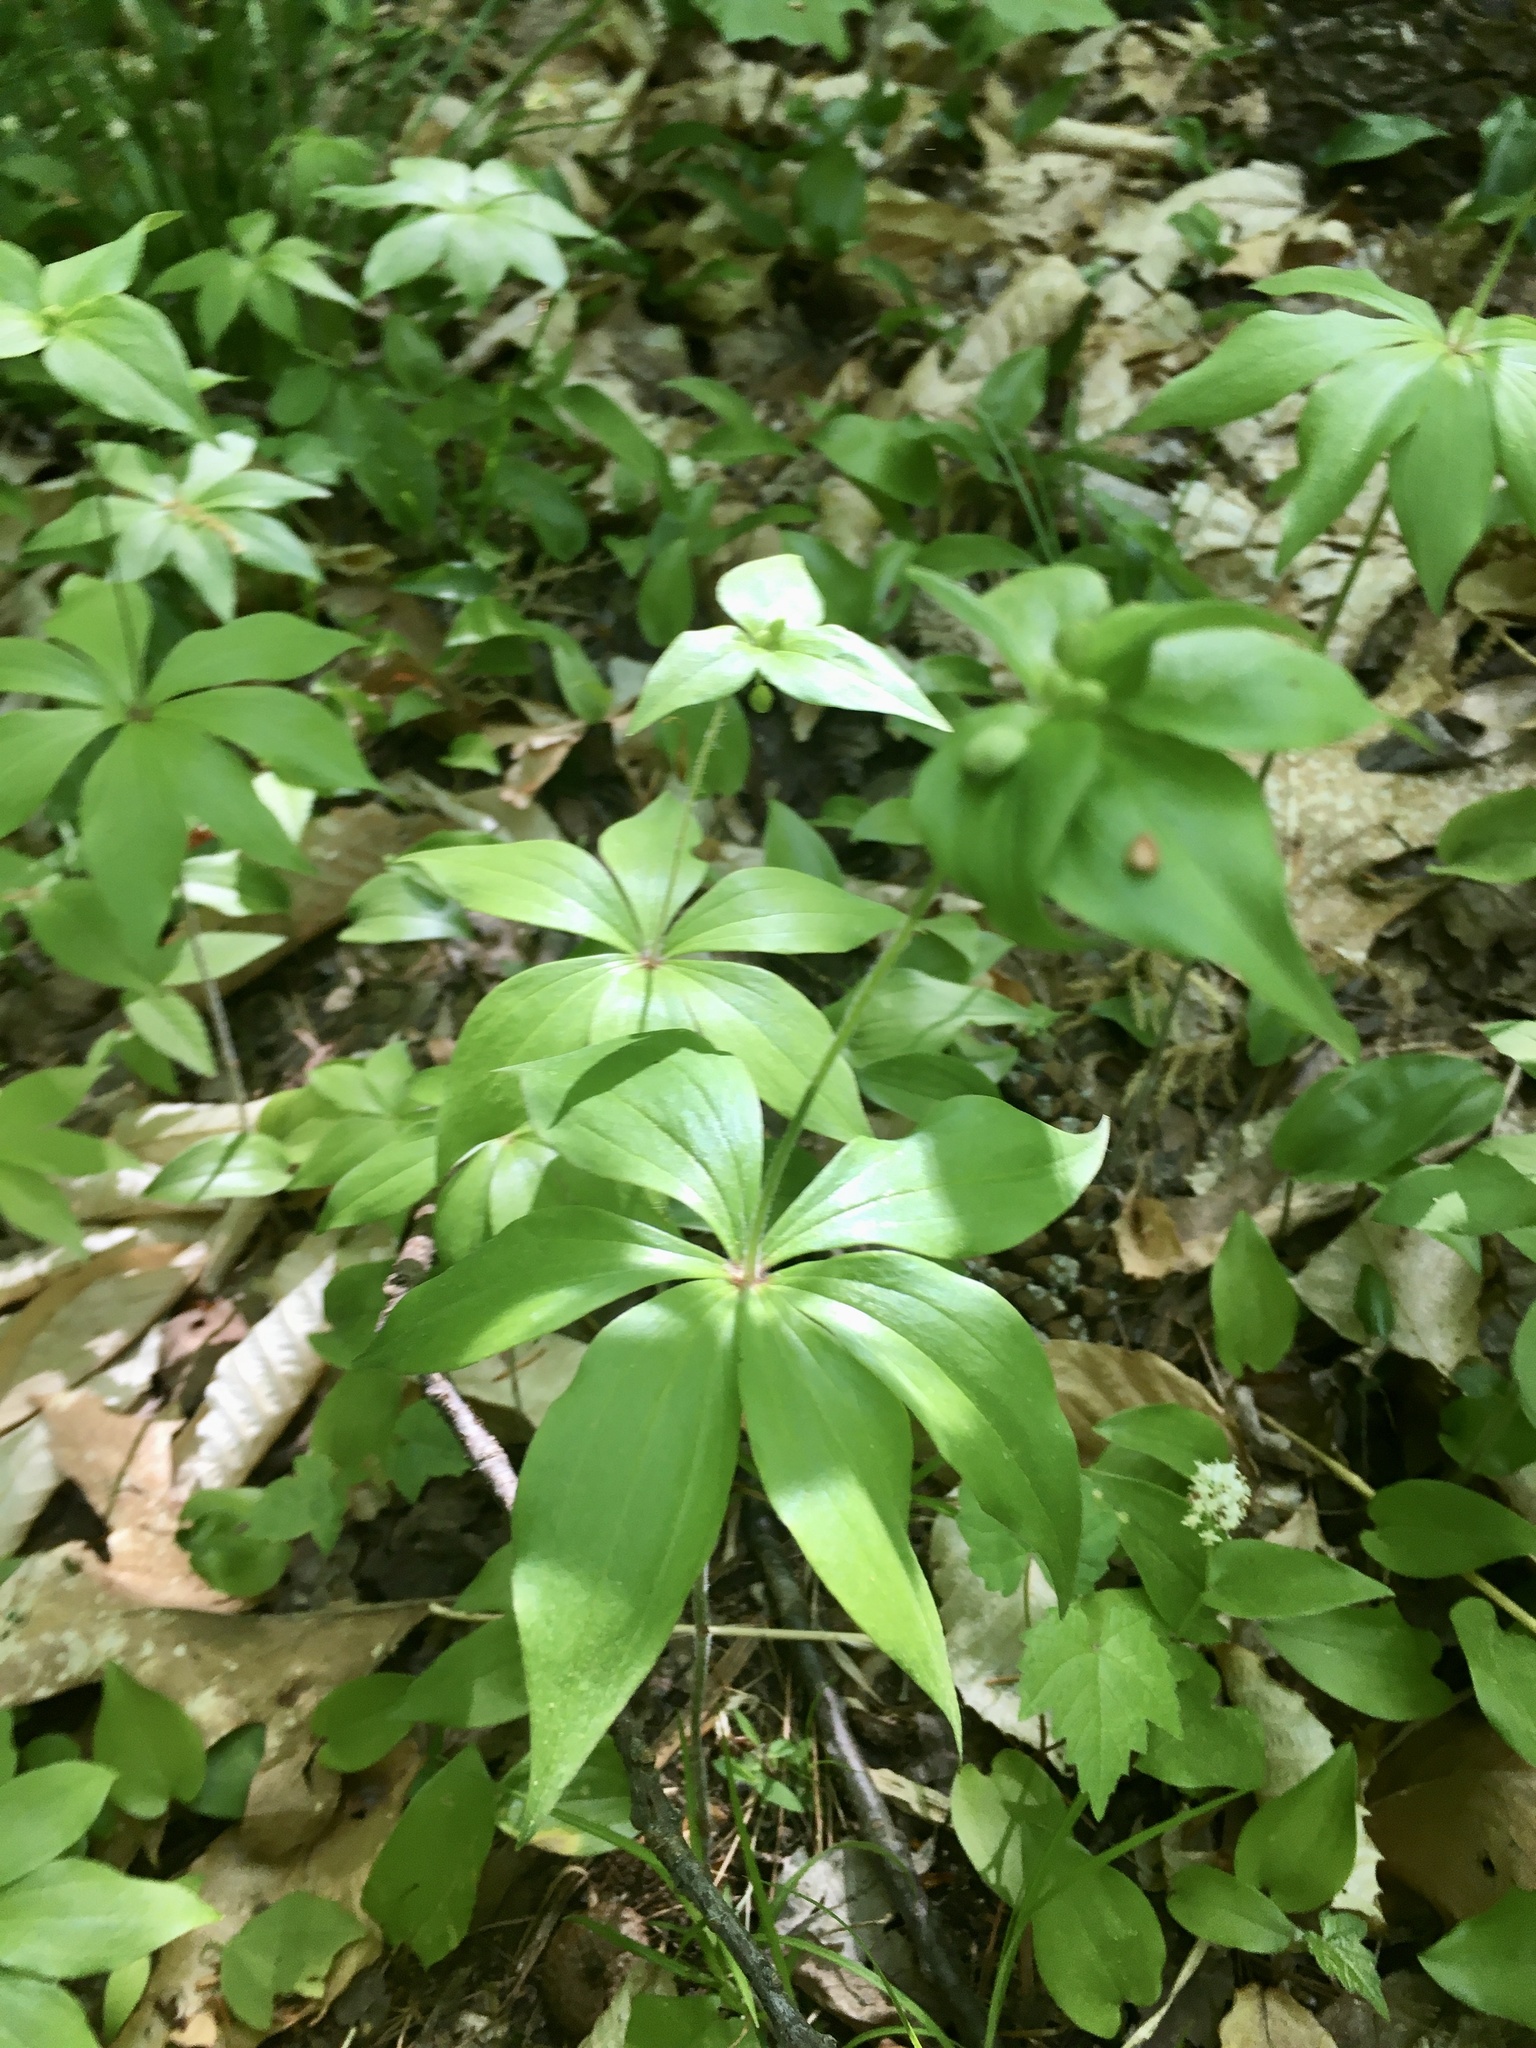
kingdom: Plantae
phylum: Tracheophyta
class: Liliopsida
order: Liliales
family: Liliaceae
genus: Medeola
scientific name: Medeola virginiana
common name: Indian cucumber-root
